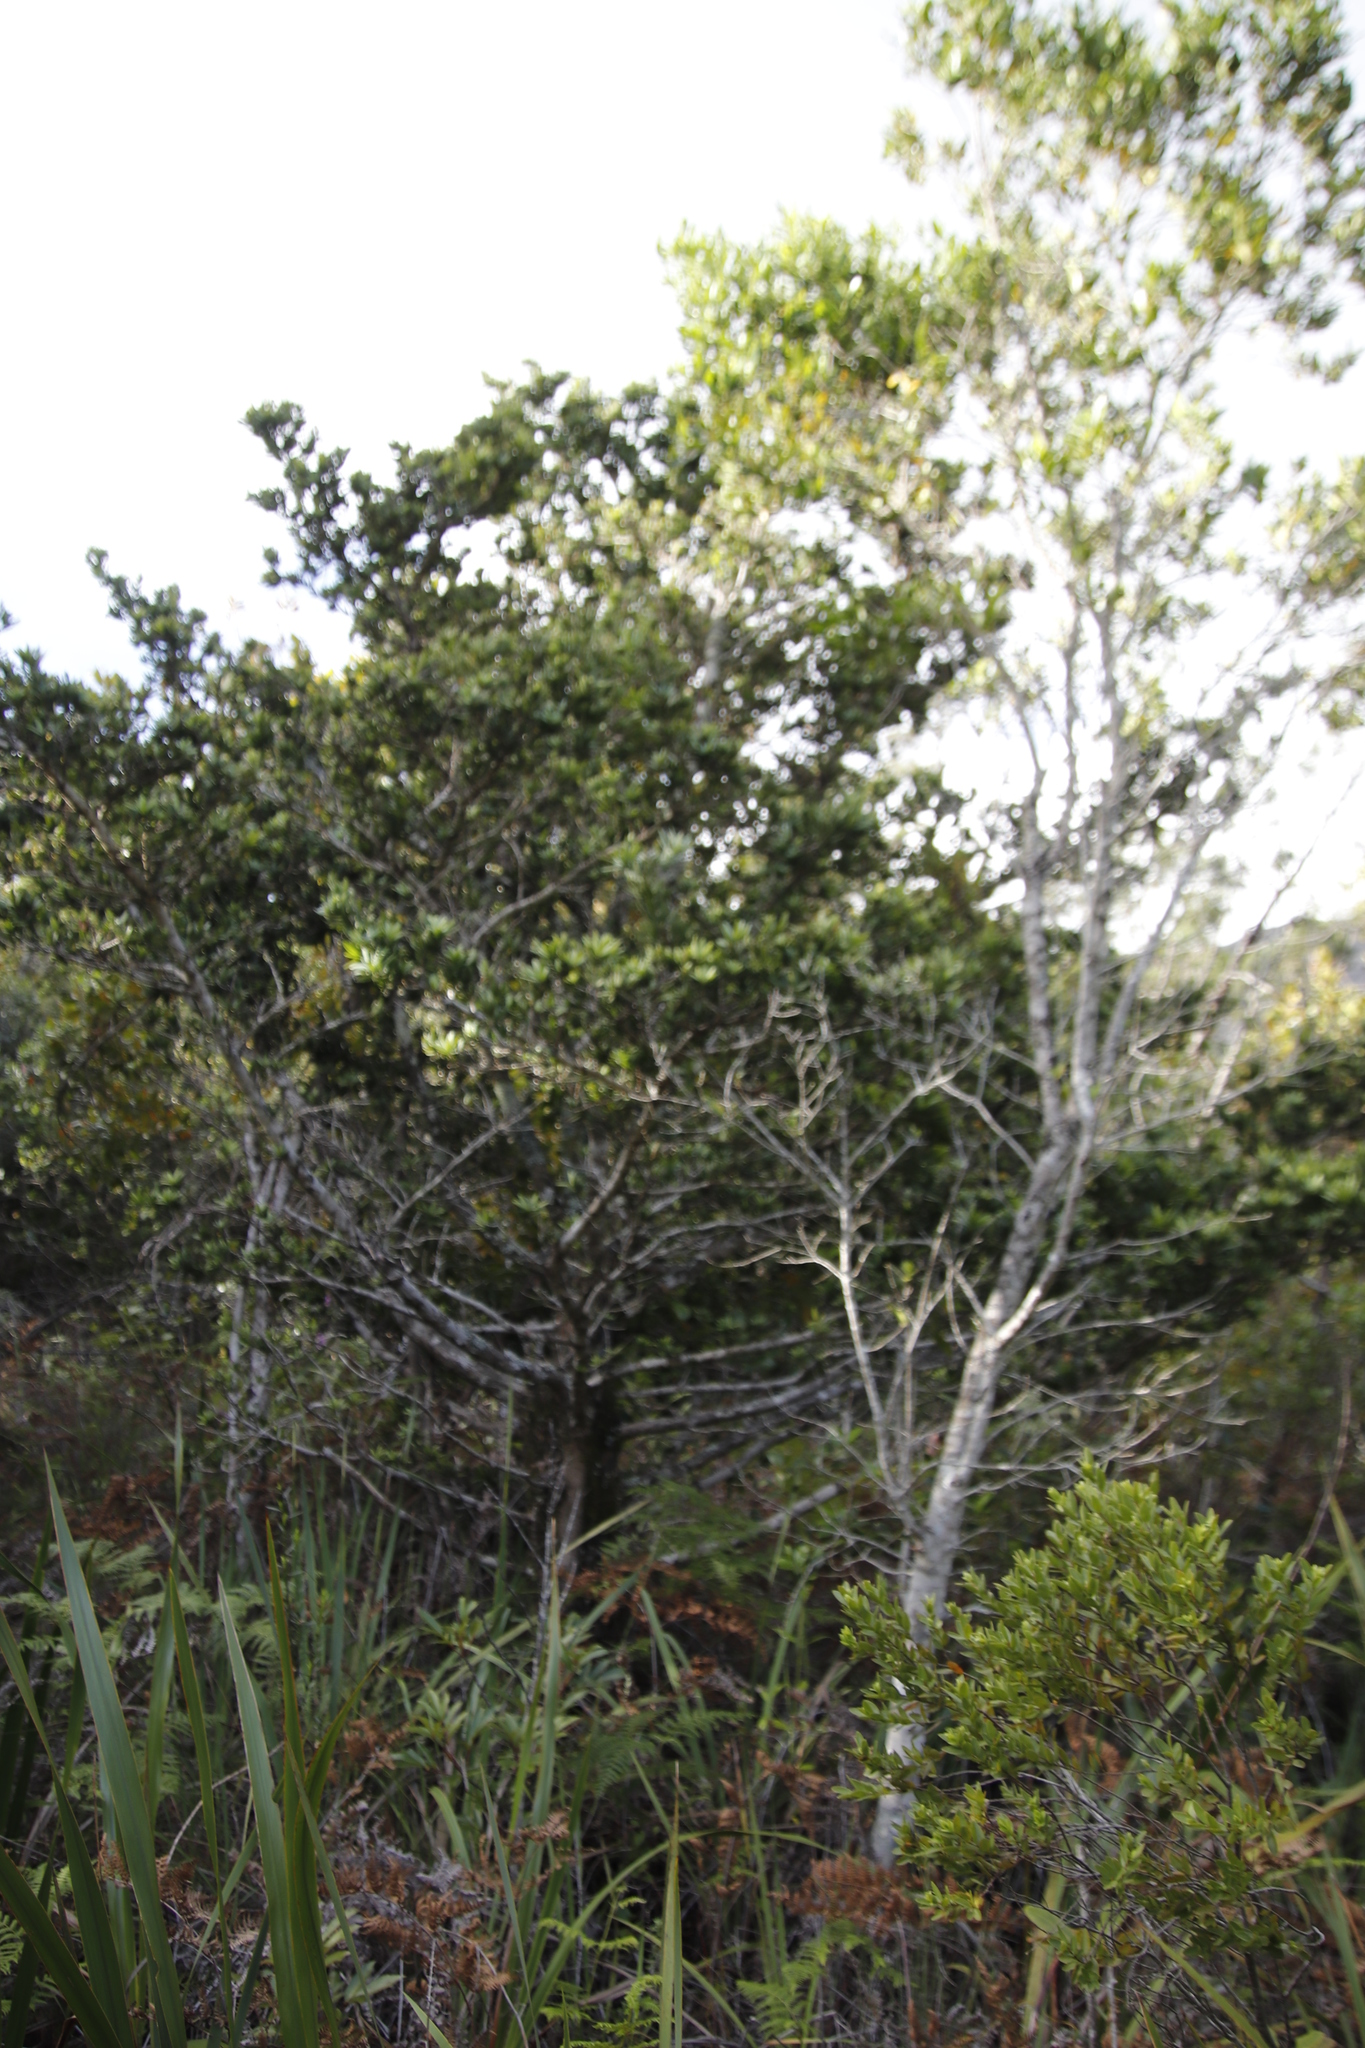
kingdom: Plantae
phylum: Tracheophyta
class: Pinopsida
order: Pinales
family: Podocarpaceae
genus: Podocarpus
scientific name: Podocarpus latifolius
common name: True yellowwood
